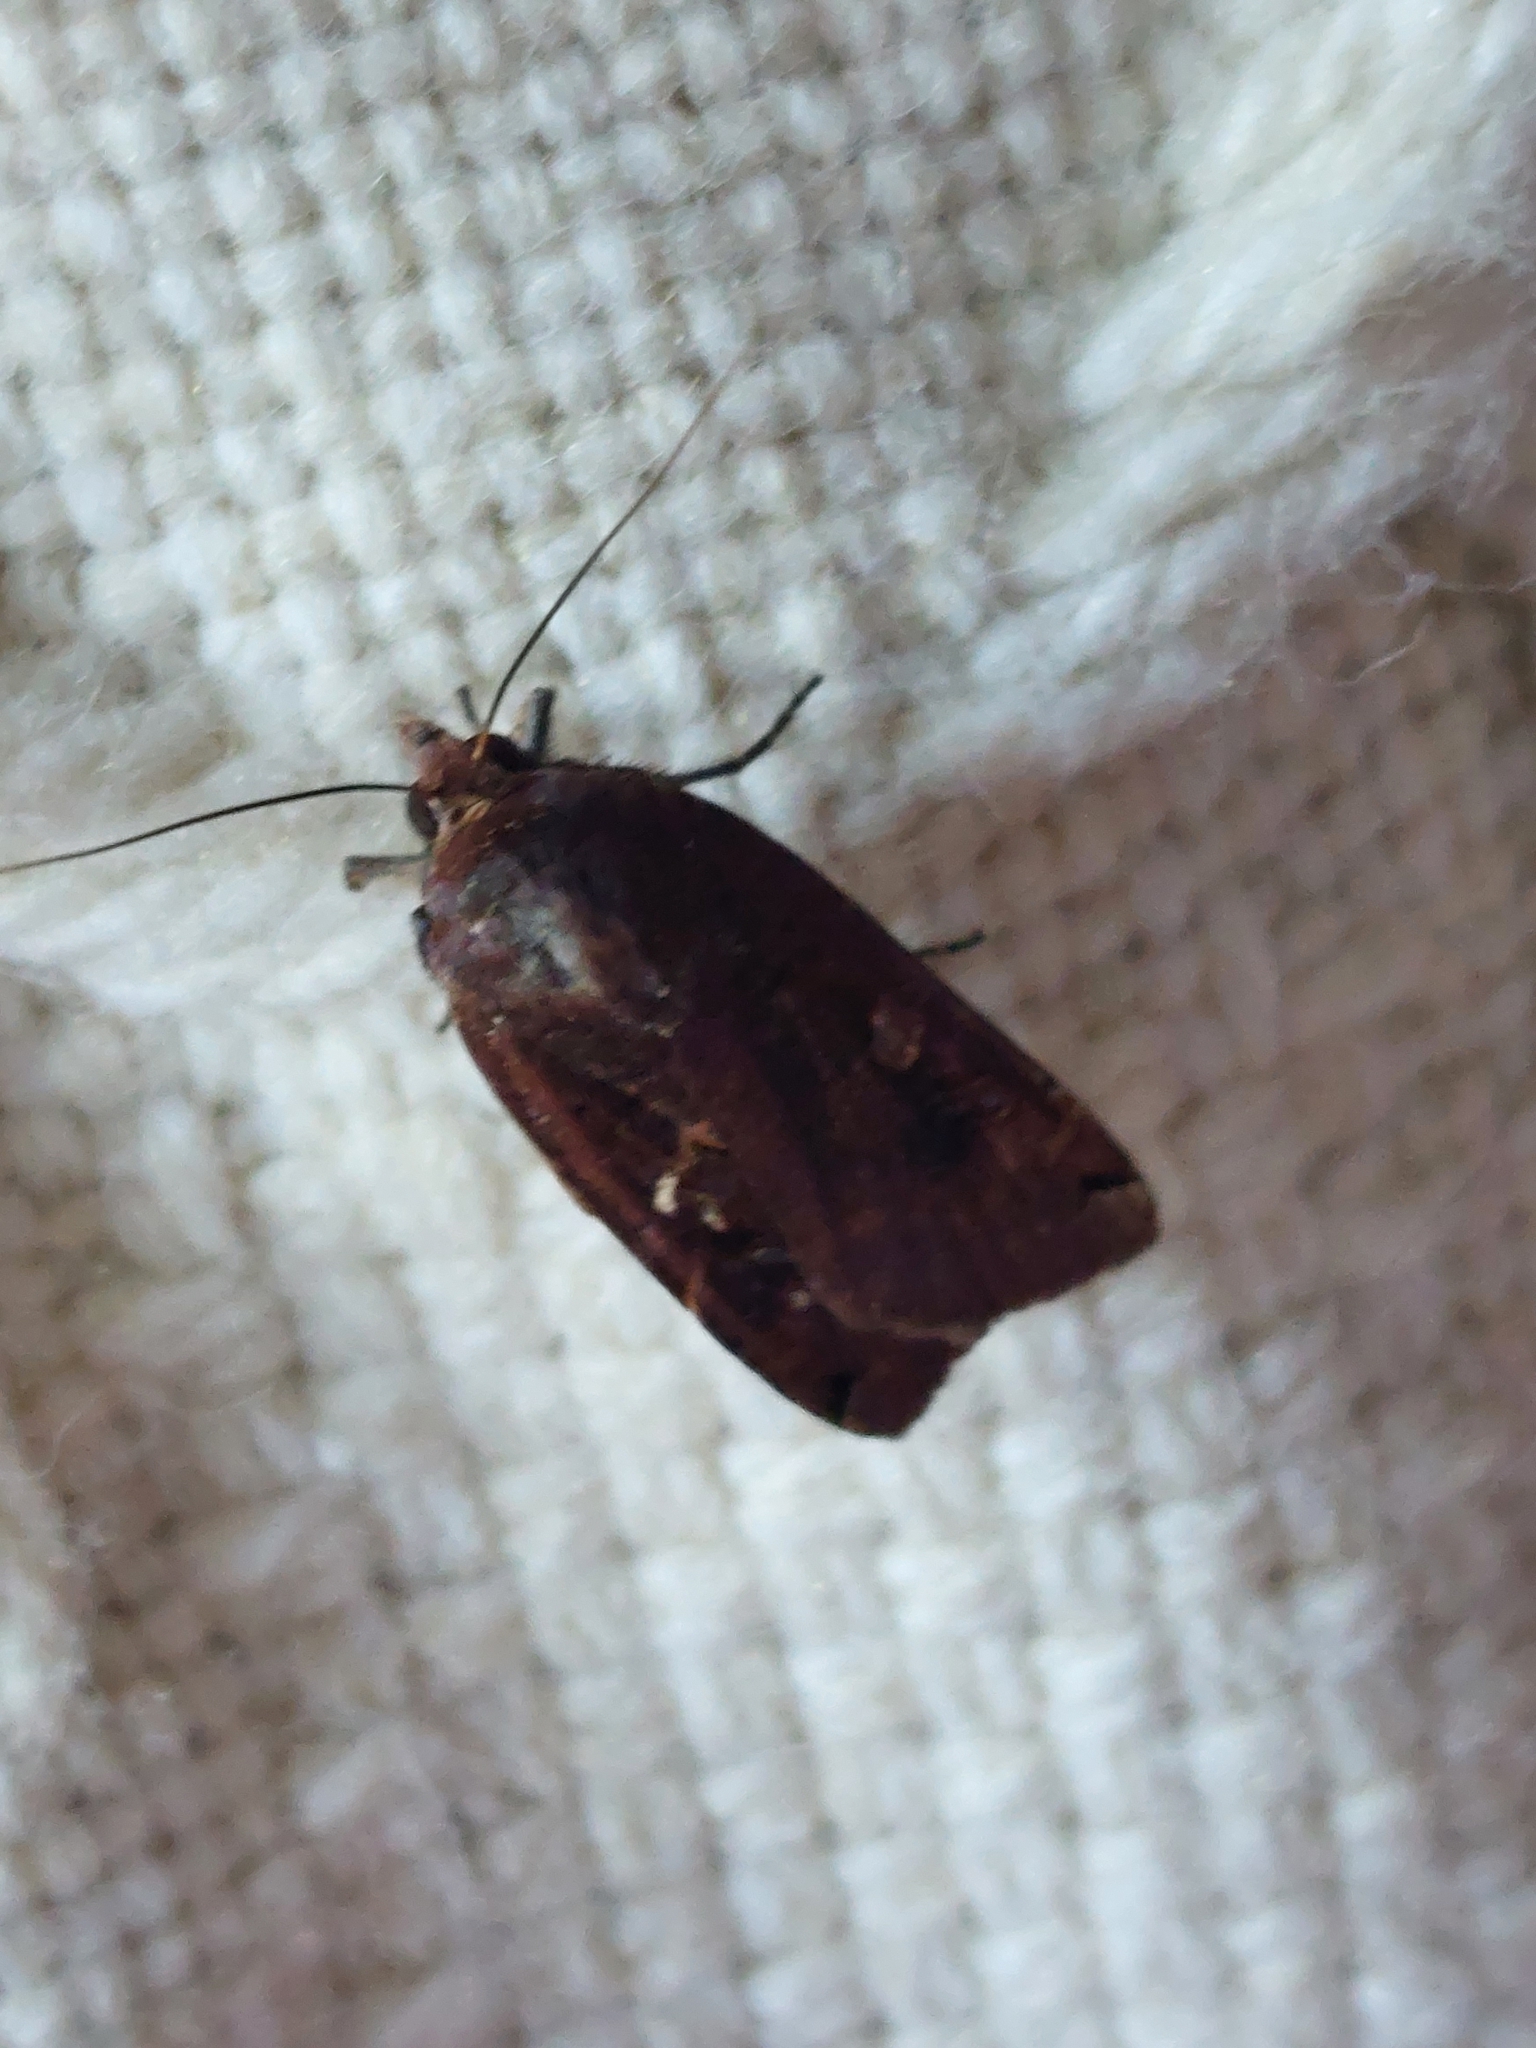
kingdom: Animalia
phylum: Arthropoda
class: Insecta
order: Lepidoptera
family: Noctuidae
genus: Noctua
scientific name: Noctua pronuba
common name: Large yellow underwing
